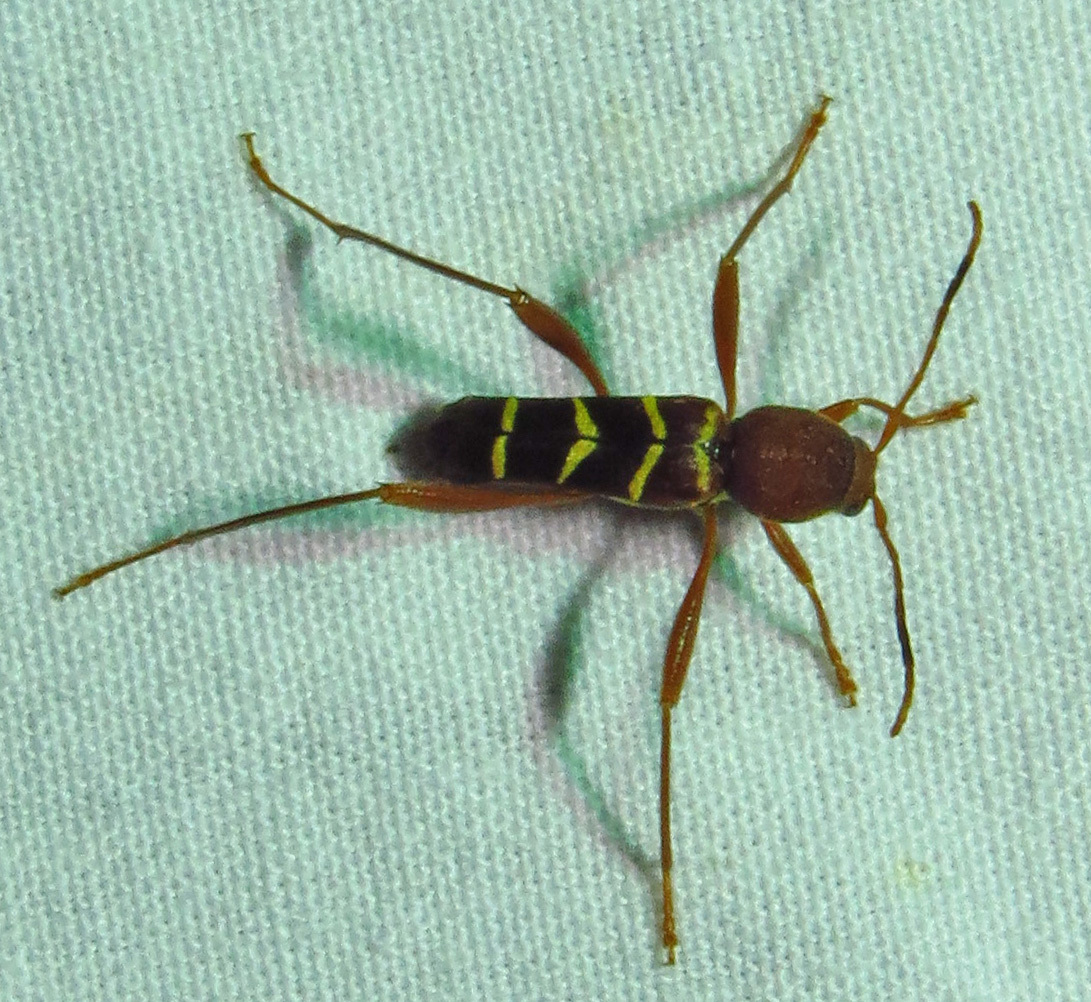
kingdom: Animalia
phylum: Arthropoda
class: Insecta
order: Coleoptera
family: Cerambycidae
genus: Neoclytus
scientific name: Neoclytus acuminatus
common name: Read-headed ash borer
